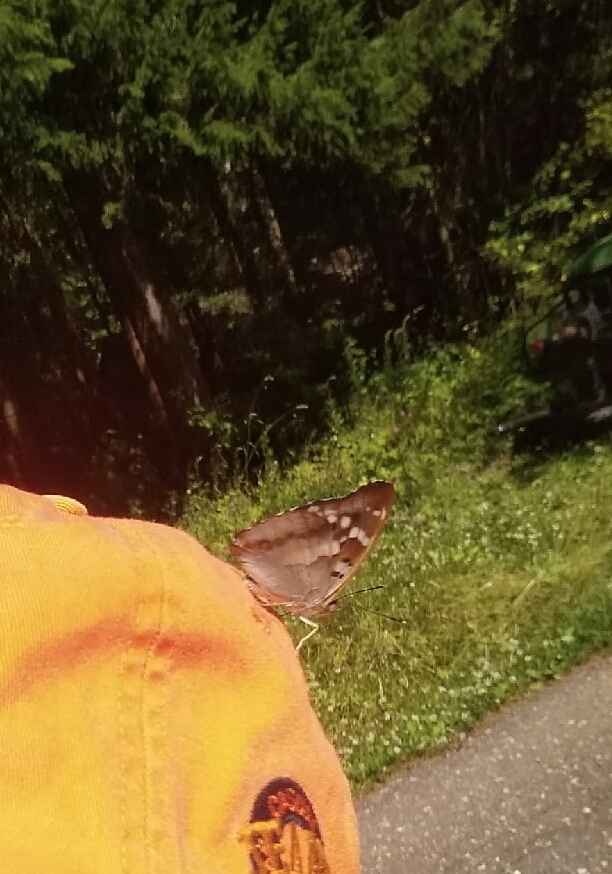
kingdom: Animalia
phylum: Arthropoda
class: Insecta
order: Lepidoptera
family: Nymphalidae
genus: Apatura
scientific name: Apatura ilia
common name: Lesser purple emperor
